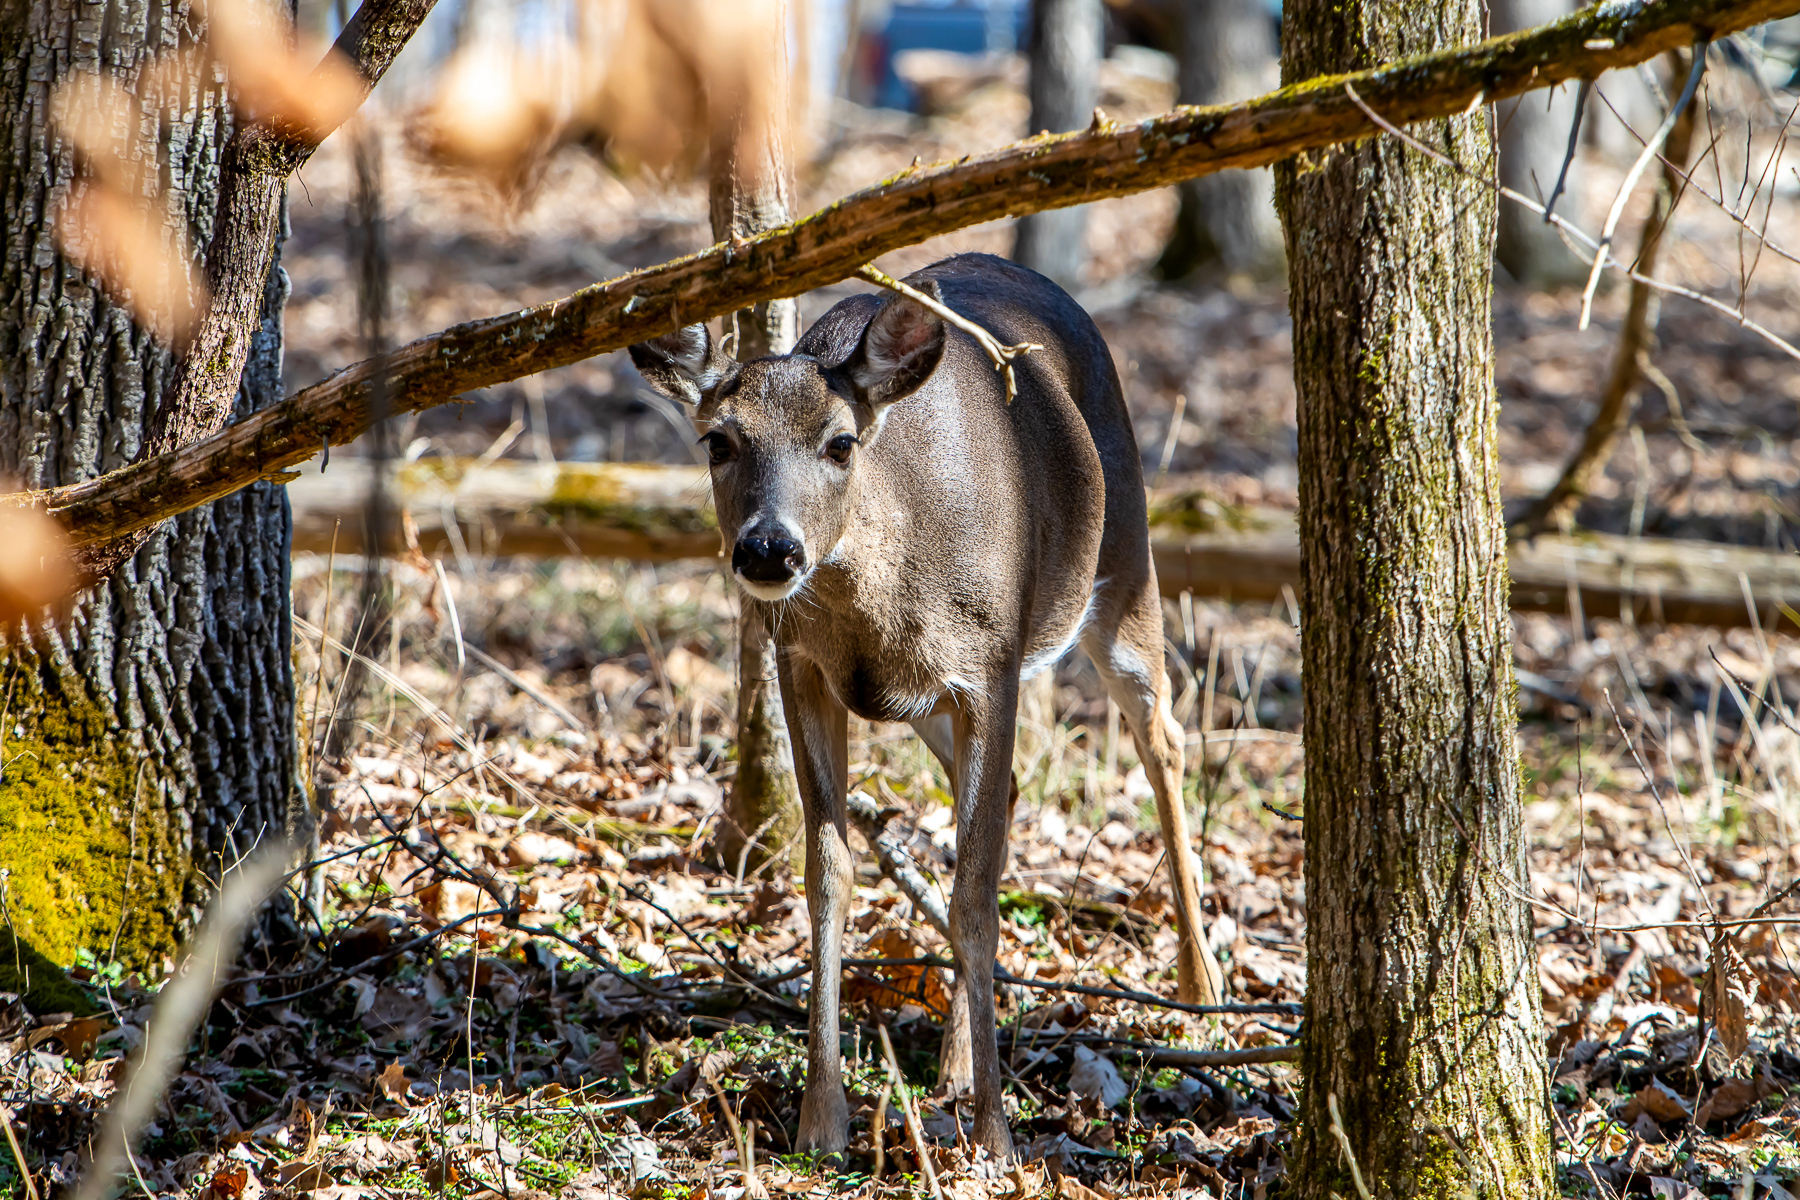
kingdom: Animalia
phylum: Chordata
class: Mammalia
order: Artiodactyla
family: Cervidae
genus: Odocoileus
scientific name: Odocoileus virginianus
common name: White-tailed deer
